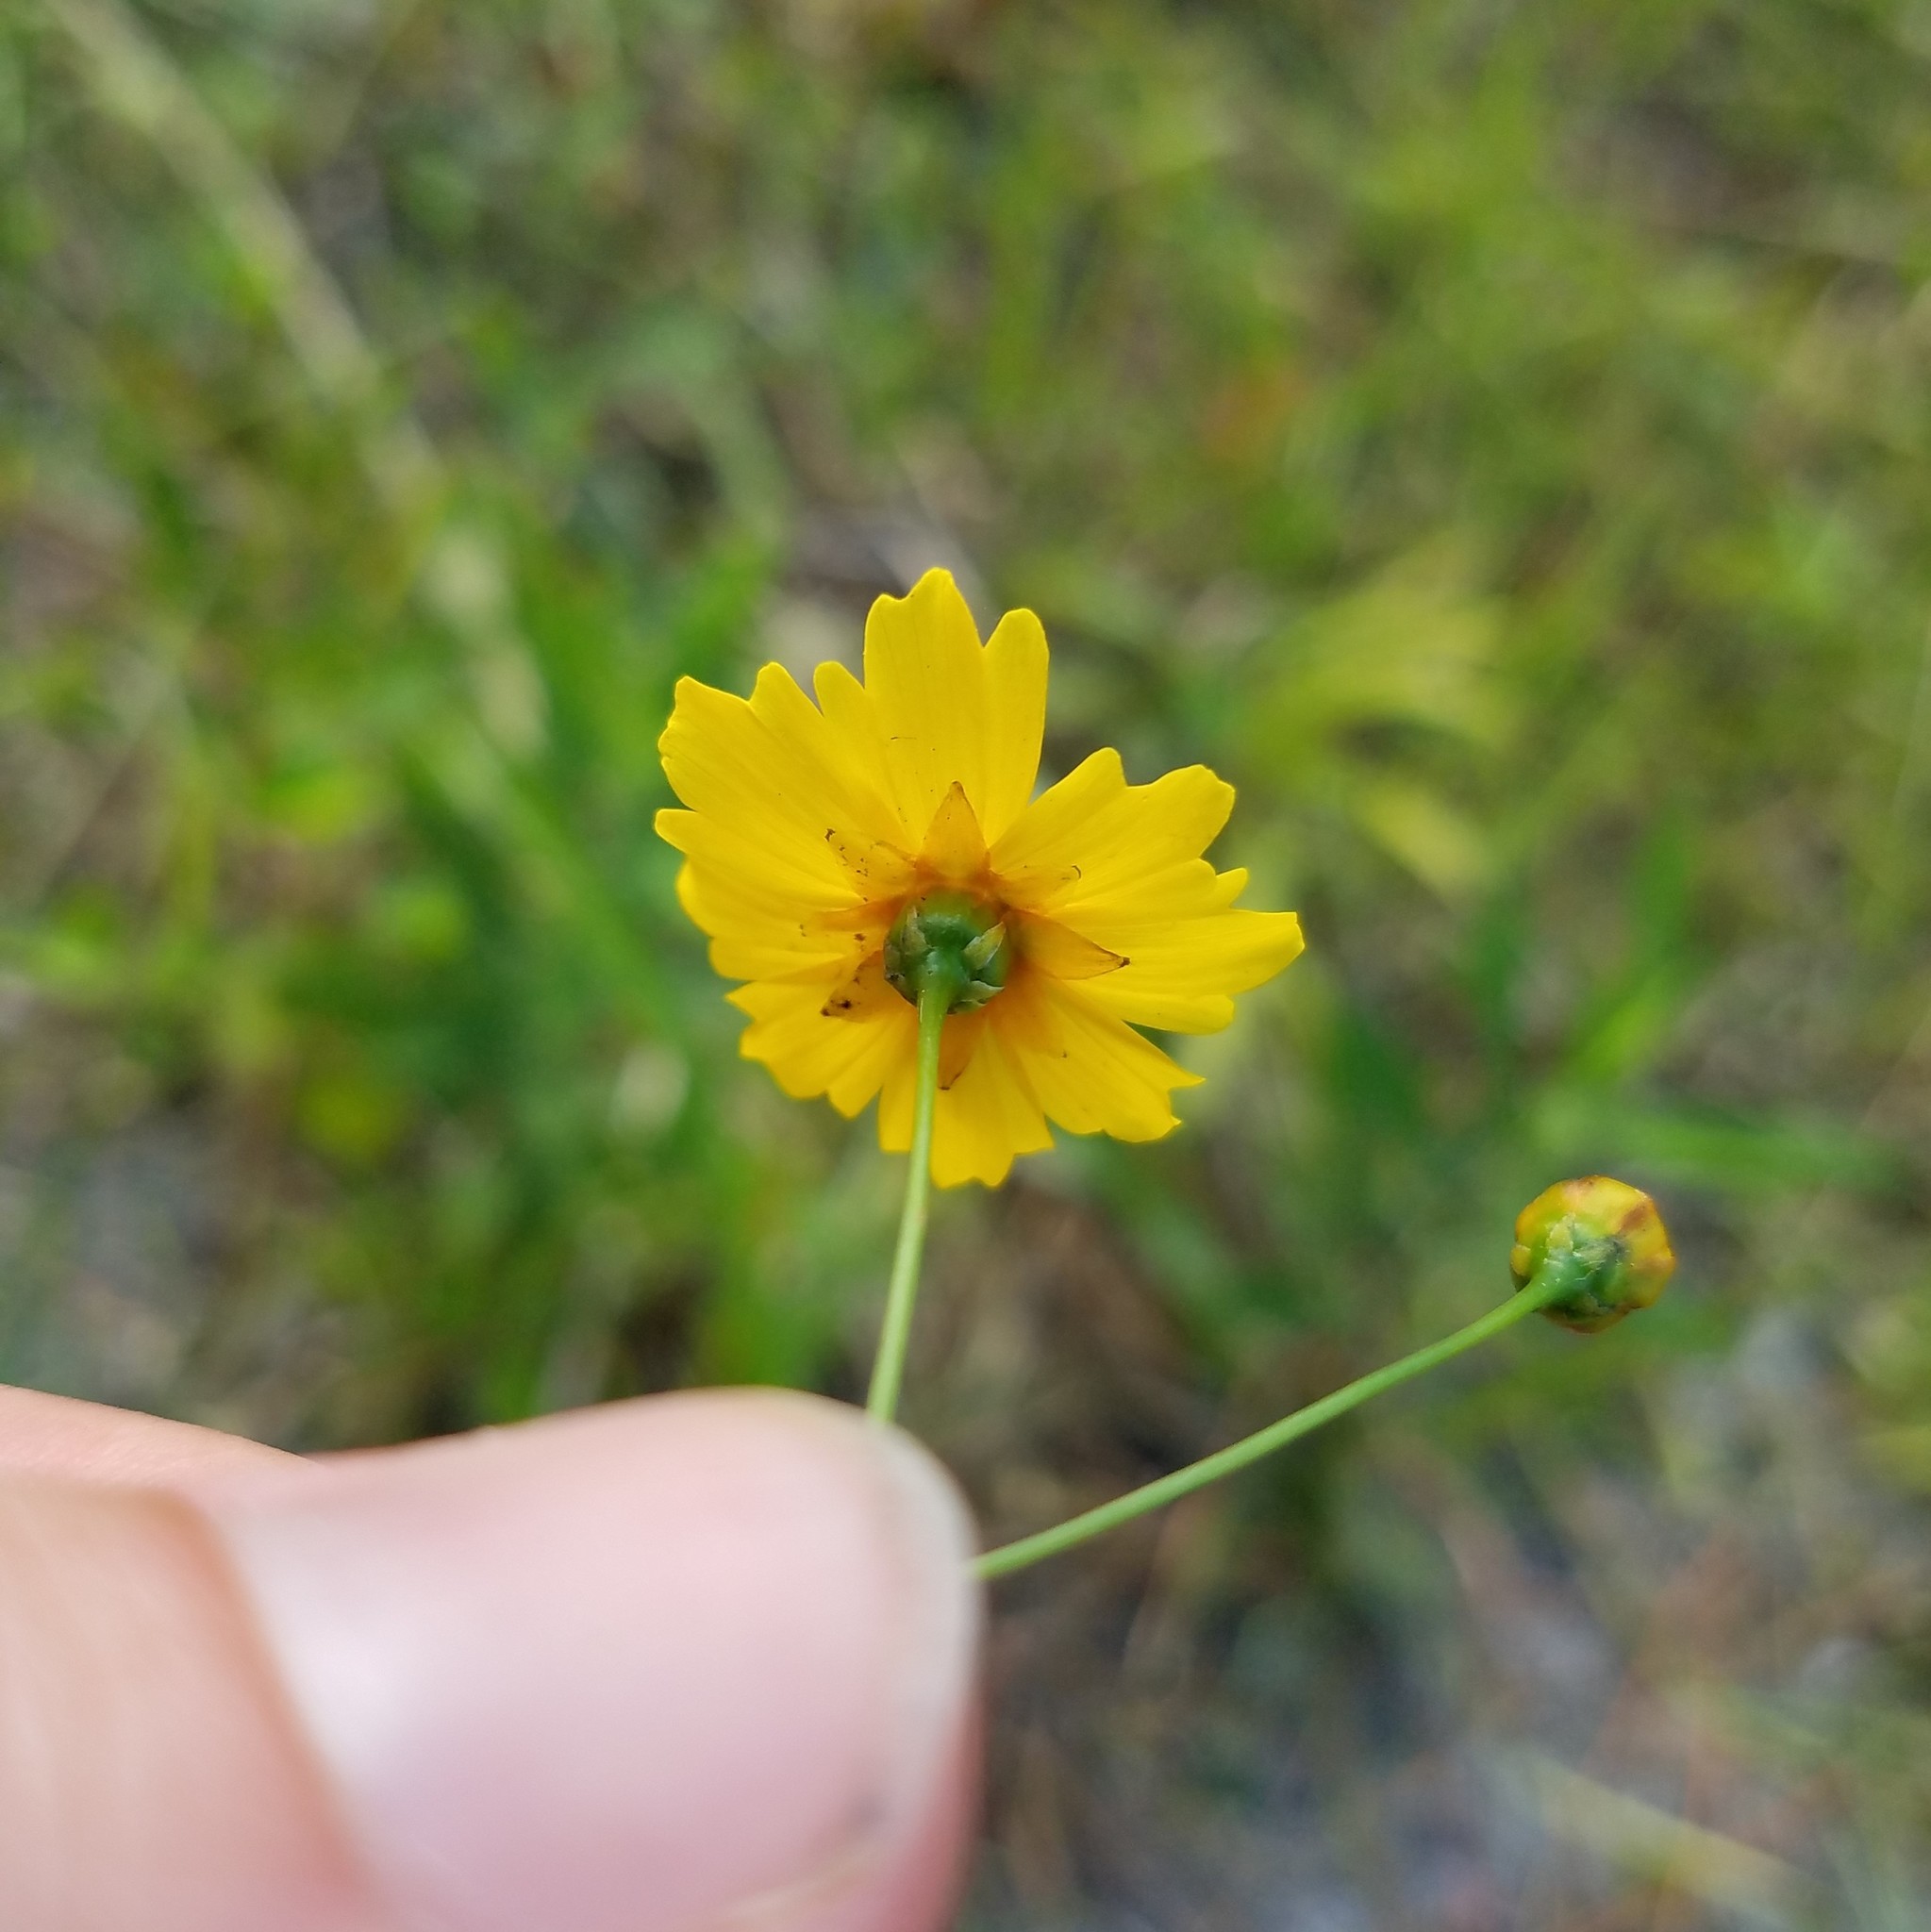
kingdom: Plantae
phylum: Tracheophyta
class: Magnoliopsida
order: Asterales
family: Asteraceae
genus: Coreopsis
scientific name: Coreopsis leavenworthii
